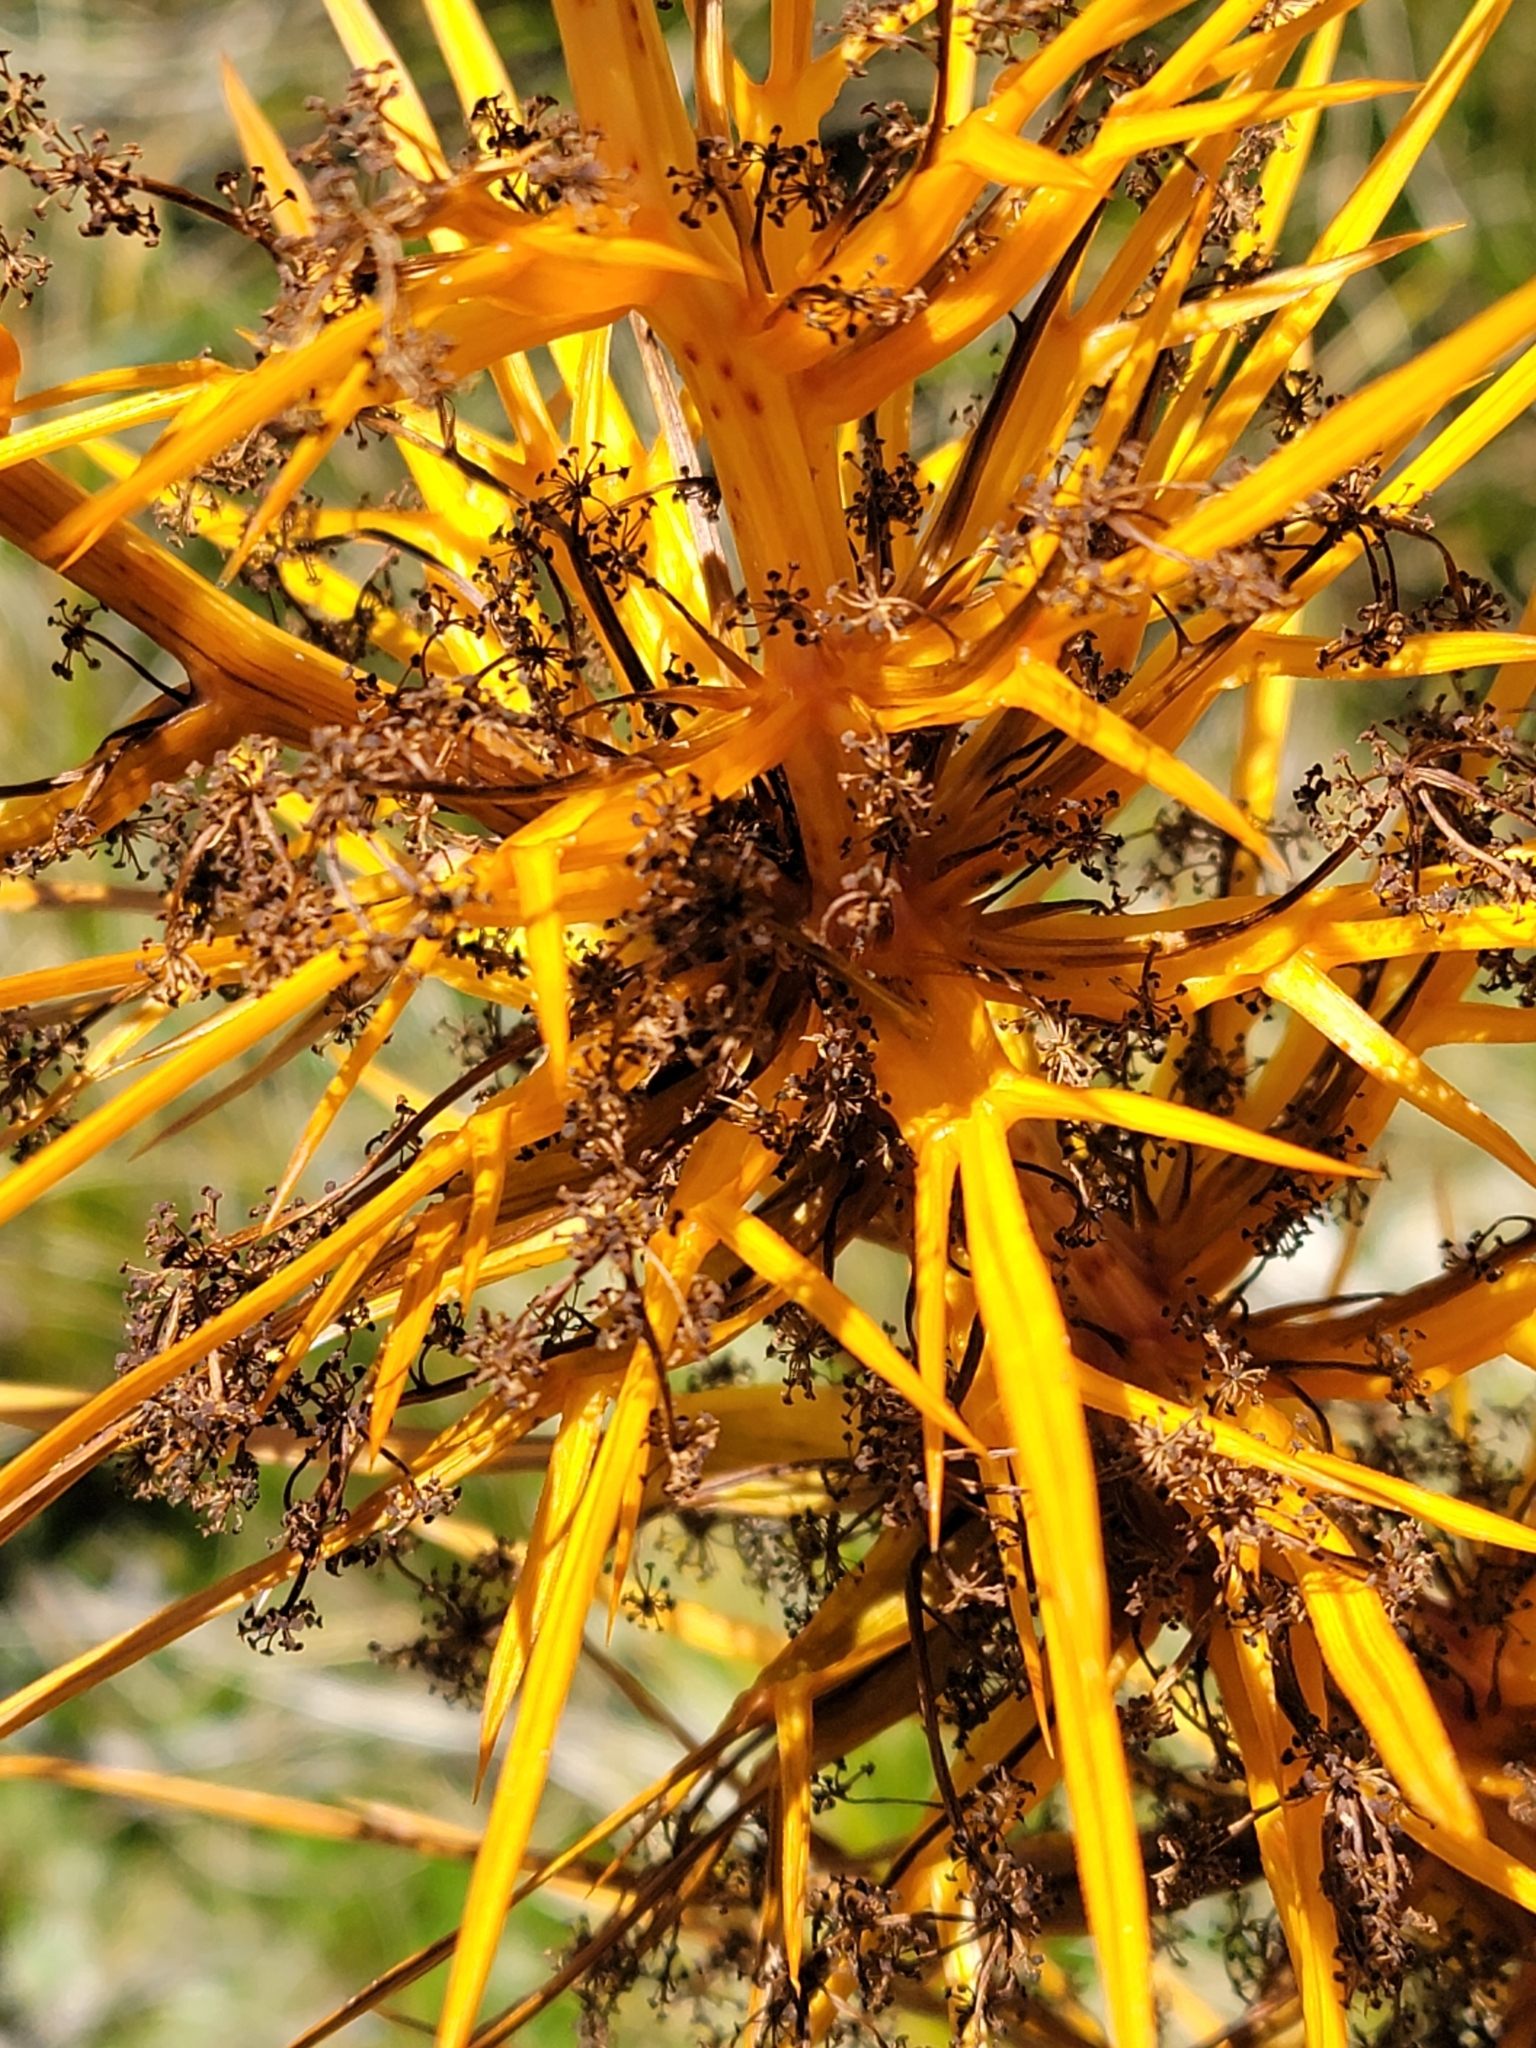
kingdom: Plantae
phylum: Tracheophyta
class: Magnoliopsida
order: Apiales
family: Apiaceae
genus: Aciphylla
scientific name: Aciphylla colensoi
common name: Colenso's spaniard
